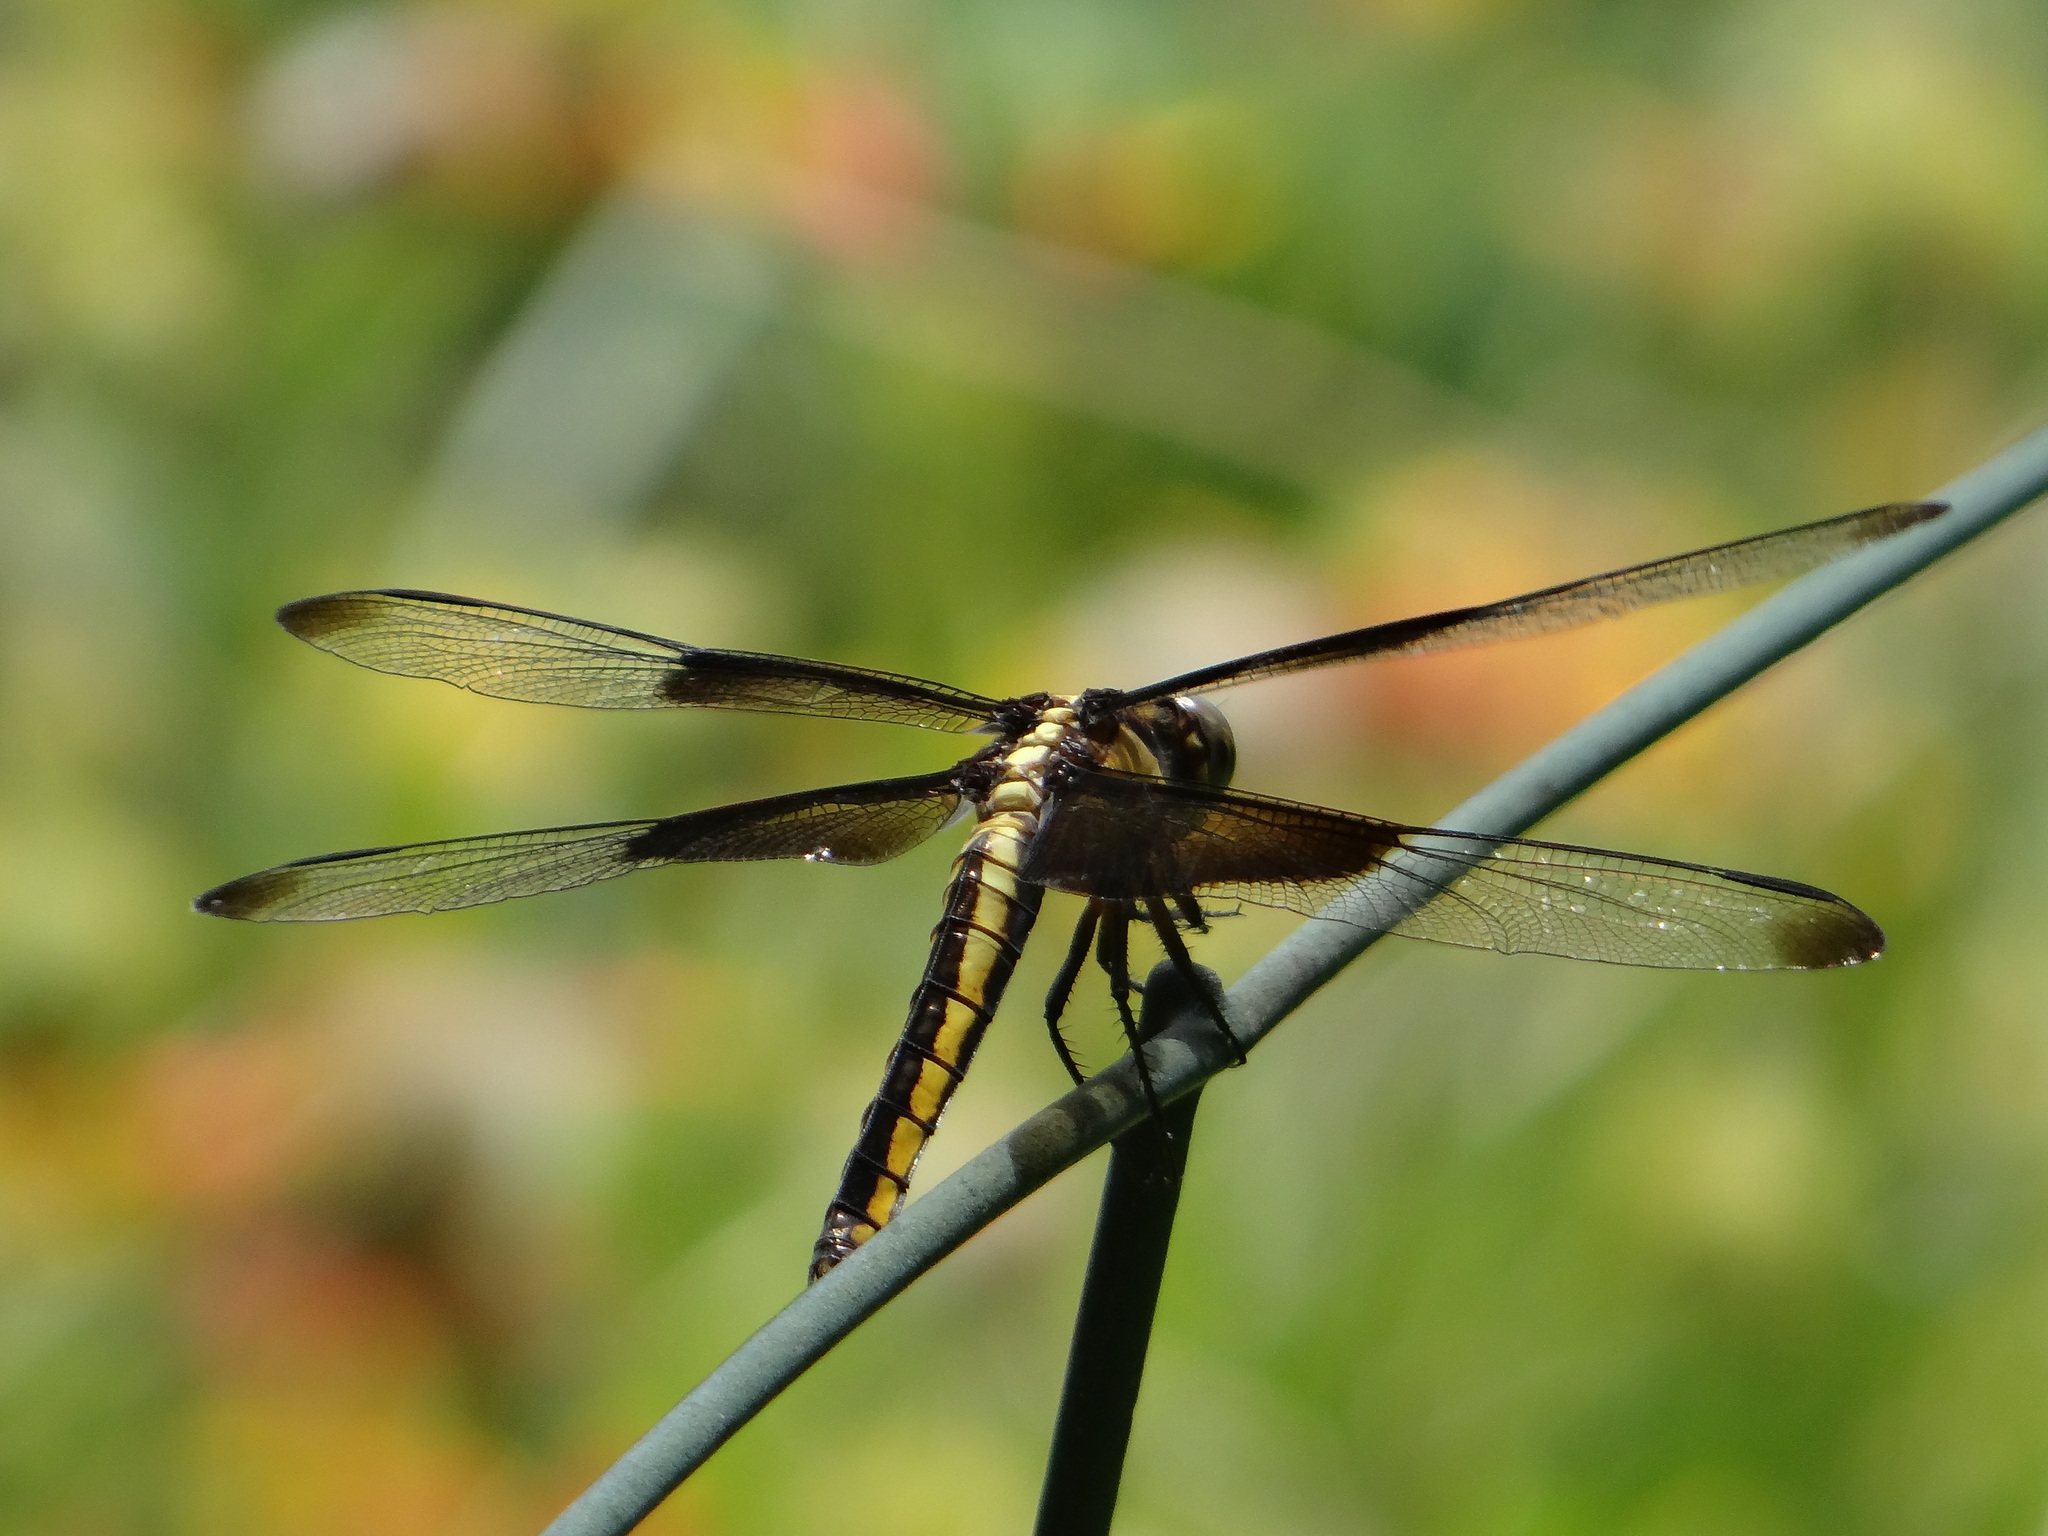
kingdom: Animalia
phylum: Arthropoda
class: Insecta
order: Odonata
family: Libellulidae
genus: Libellula
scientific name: Libellula luctuosa
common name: Widow skimmer
